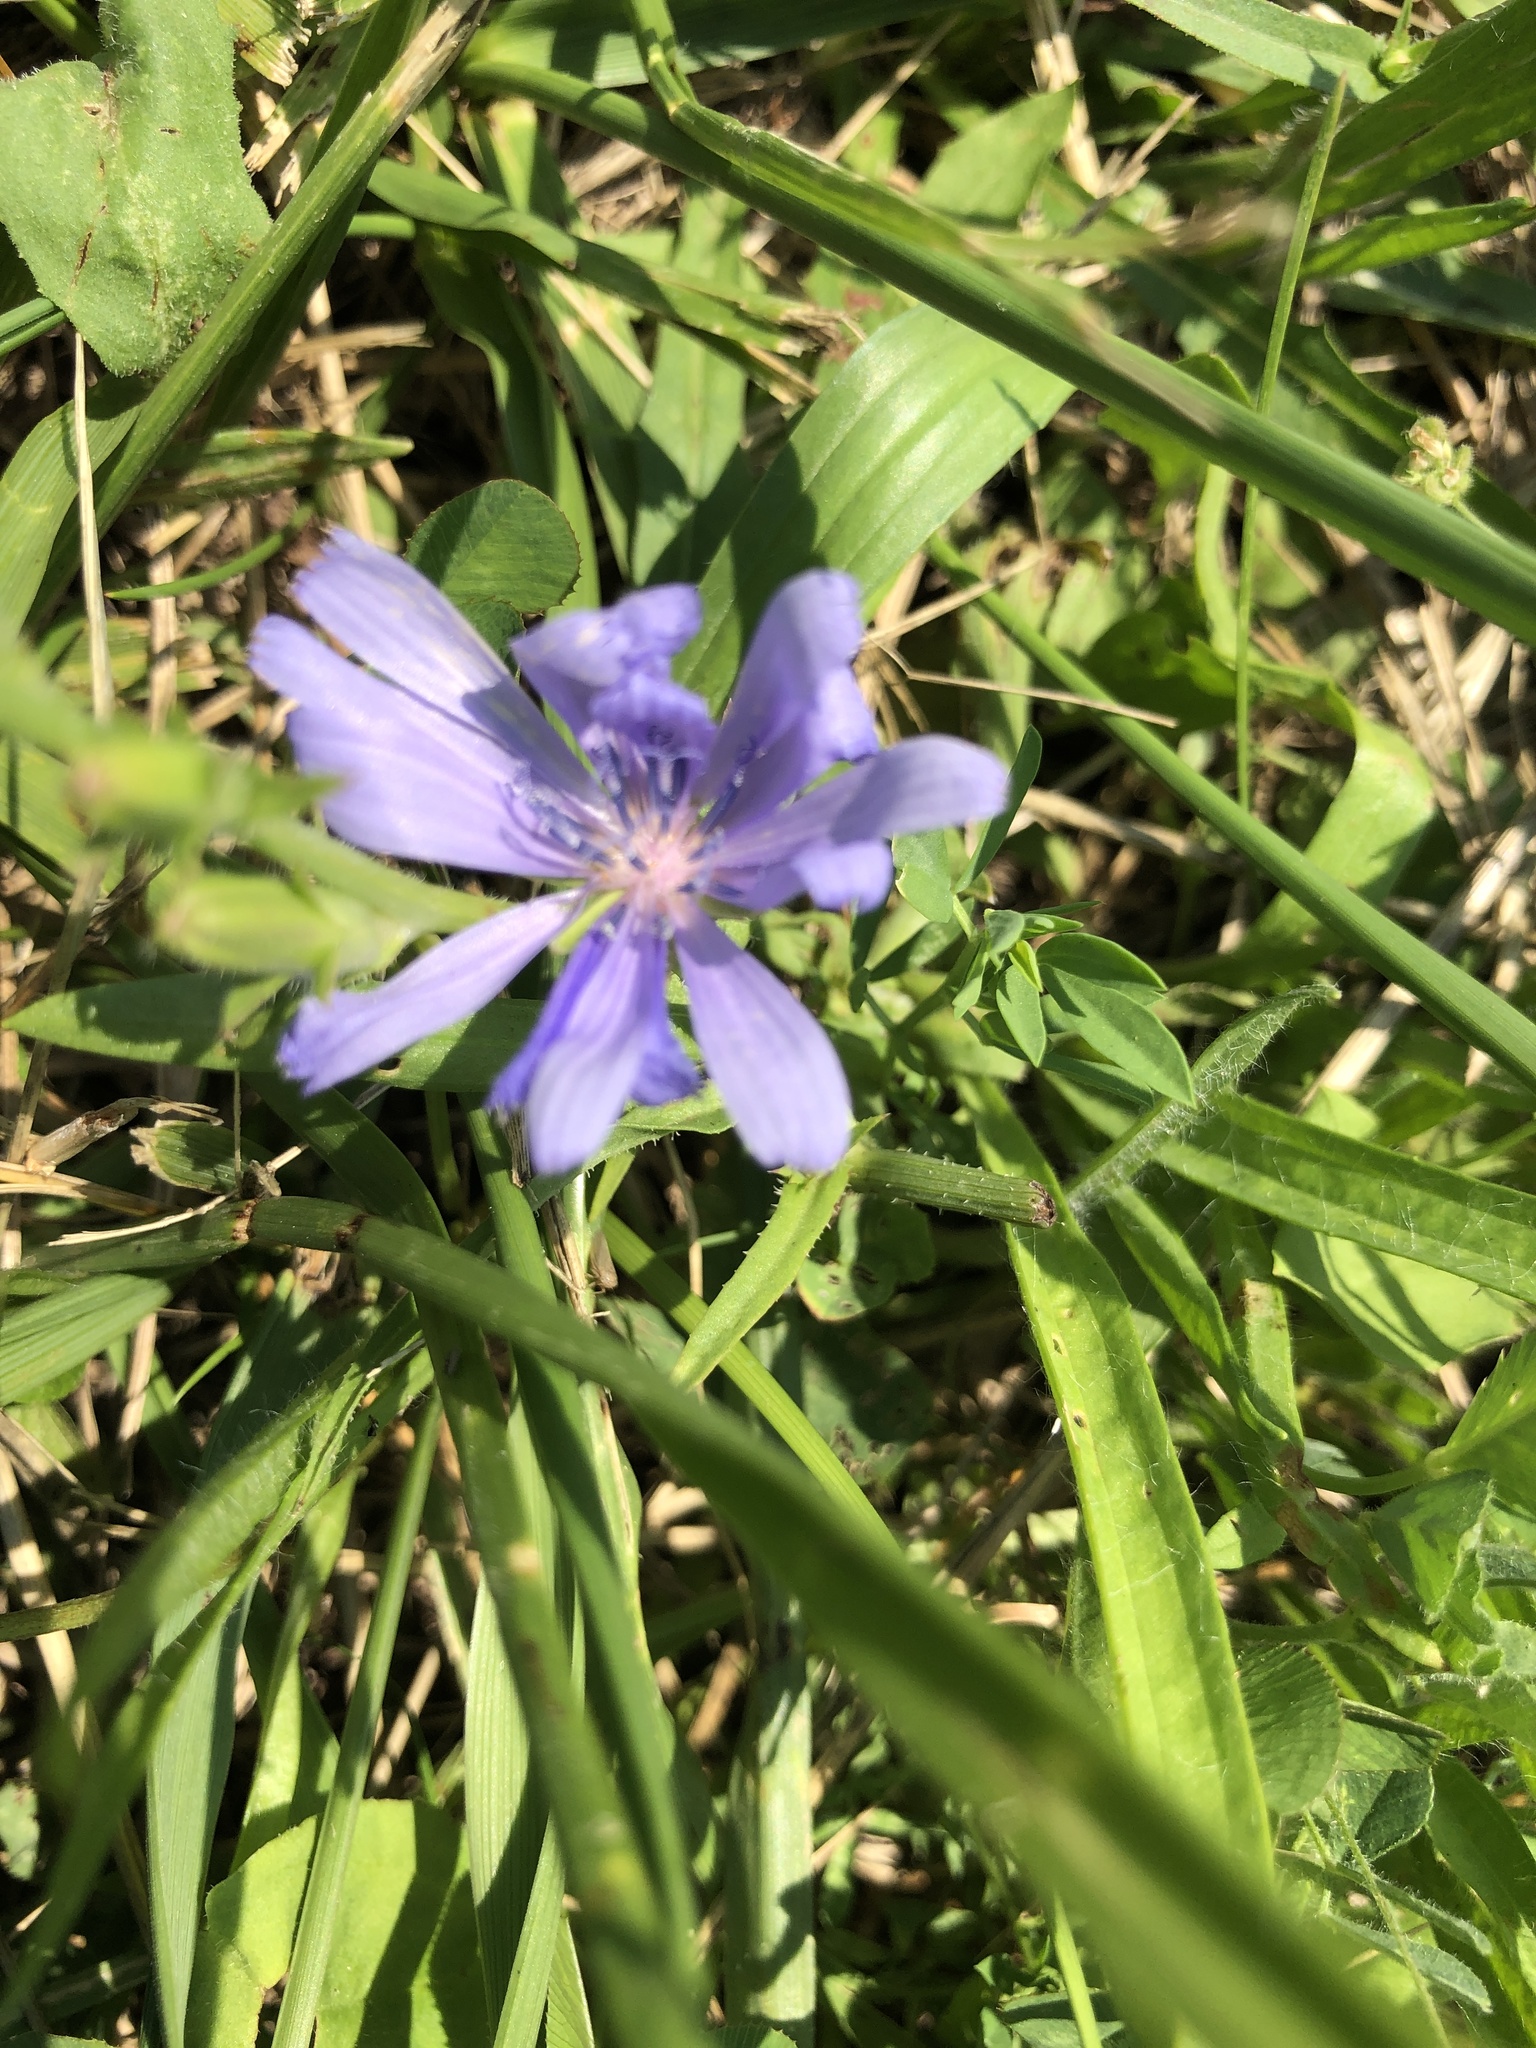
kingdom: Plantae
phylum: Tracheophyta
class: Magnoliopsida
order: Asterales
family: Asteraceae
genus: Cichorium
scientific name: Cichorium intybus
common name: Chicory
